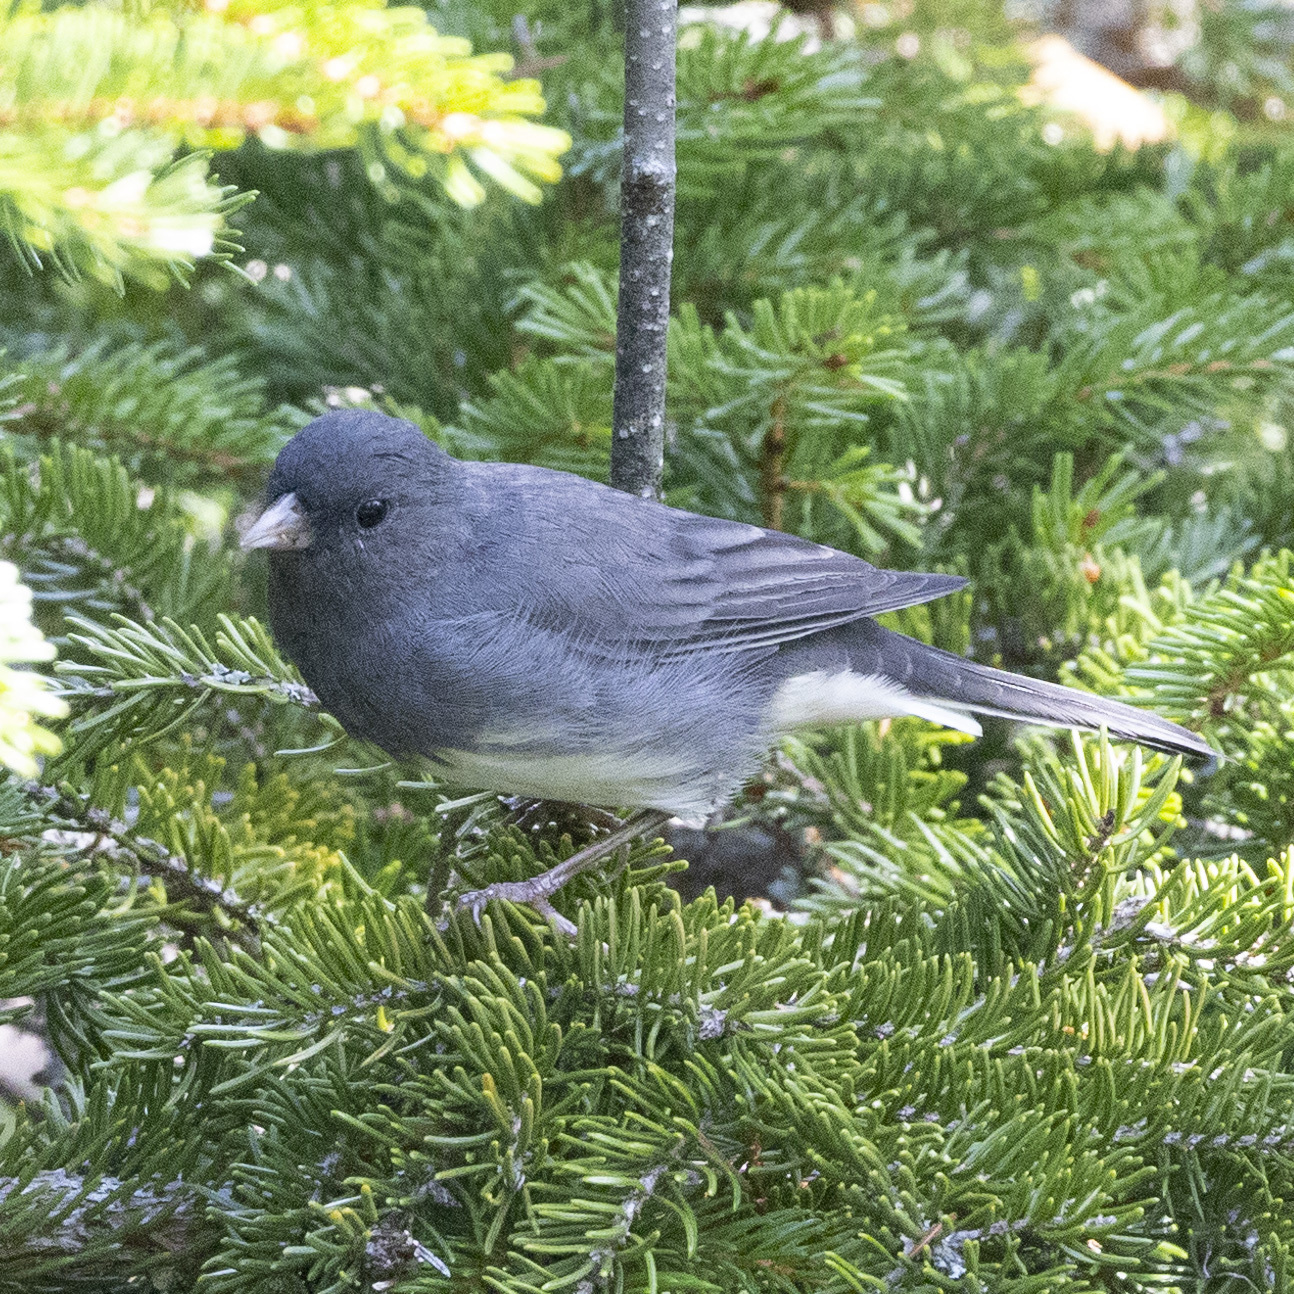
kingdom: Animalia
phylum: Chordata
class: Aves
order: Passeriformes
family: Passerellidae
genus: Junco
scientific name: Junco hyemalis
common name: Dark-eyed junco
